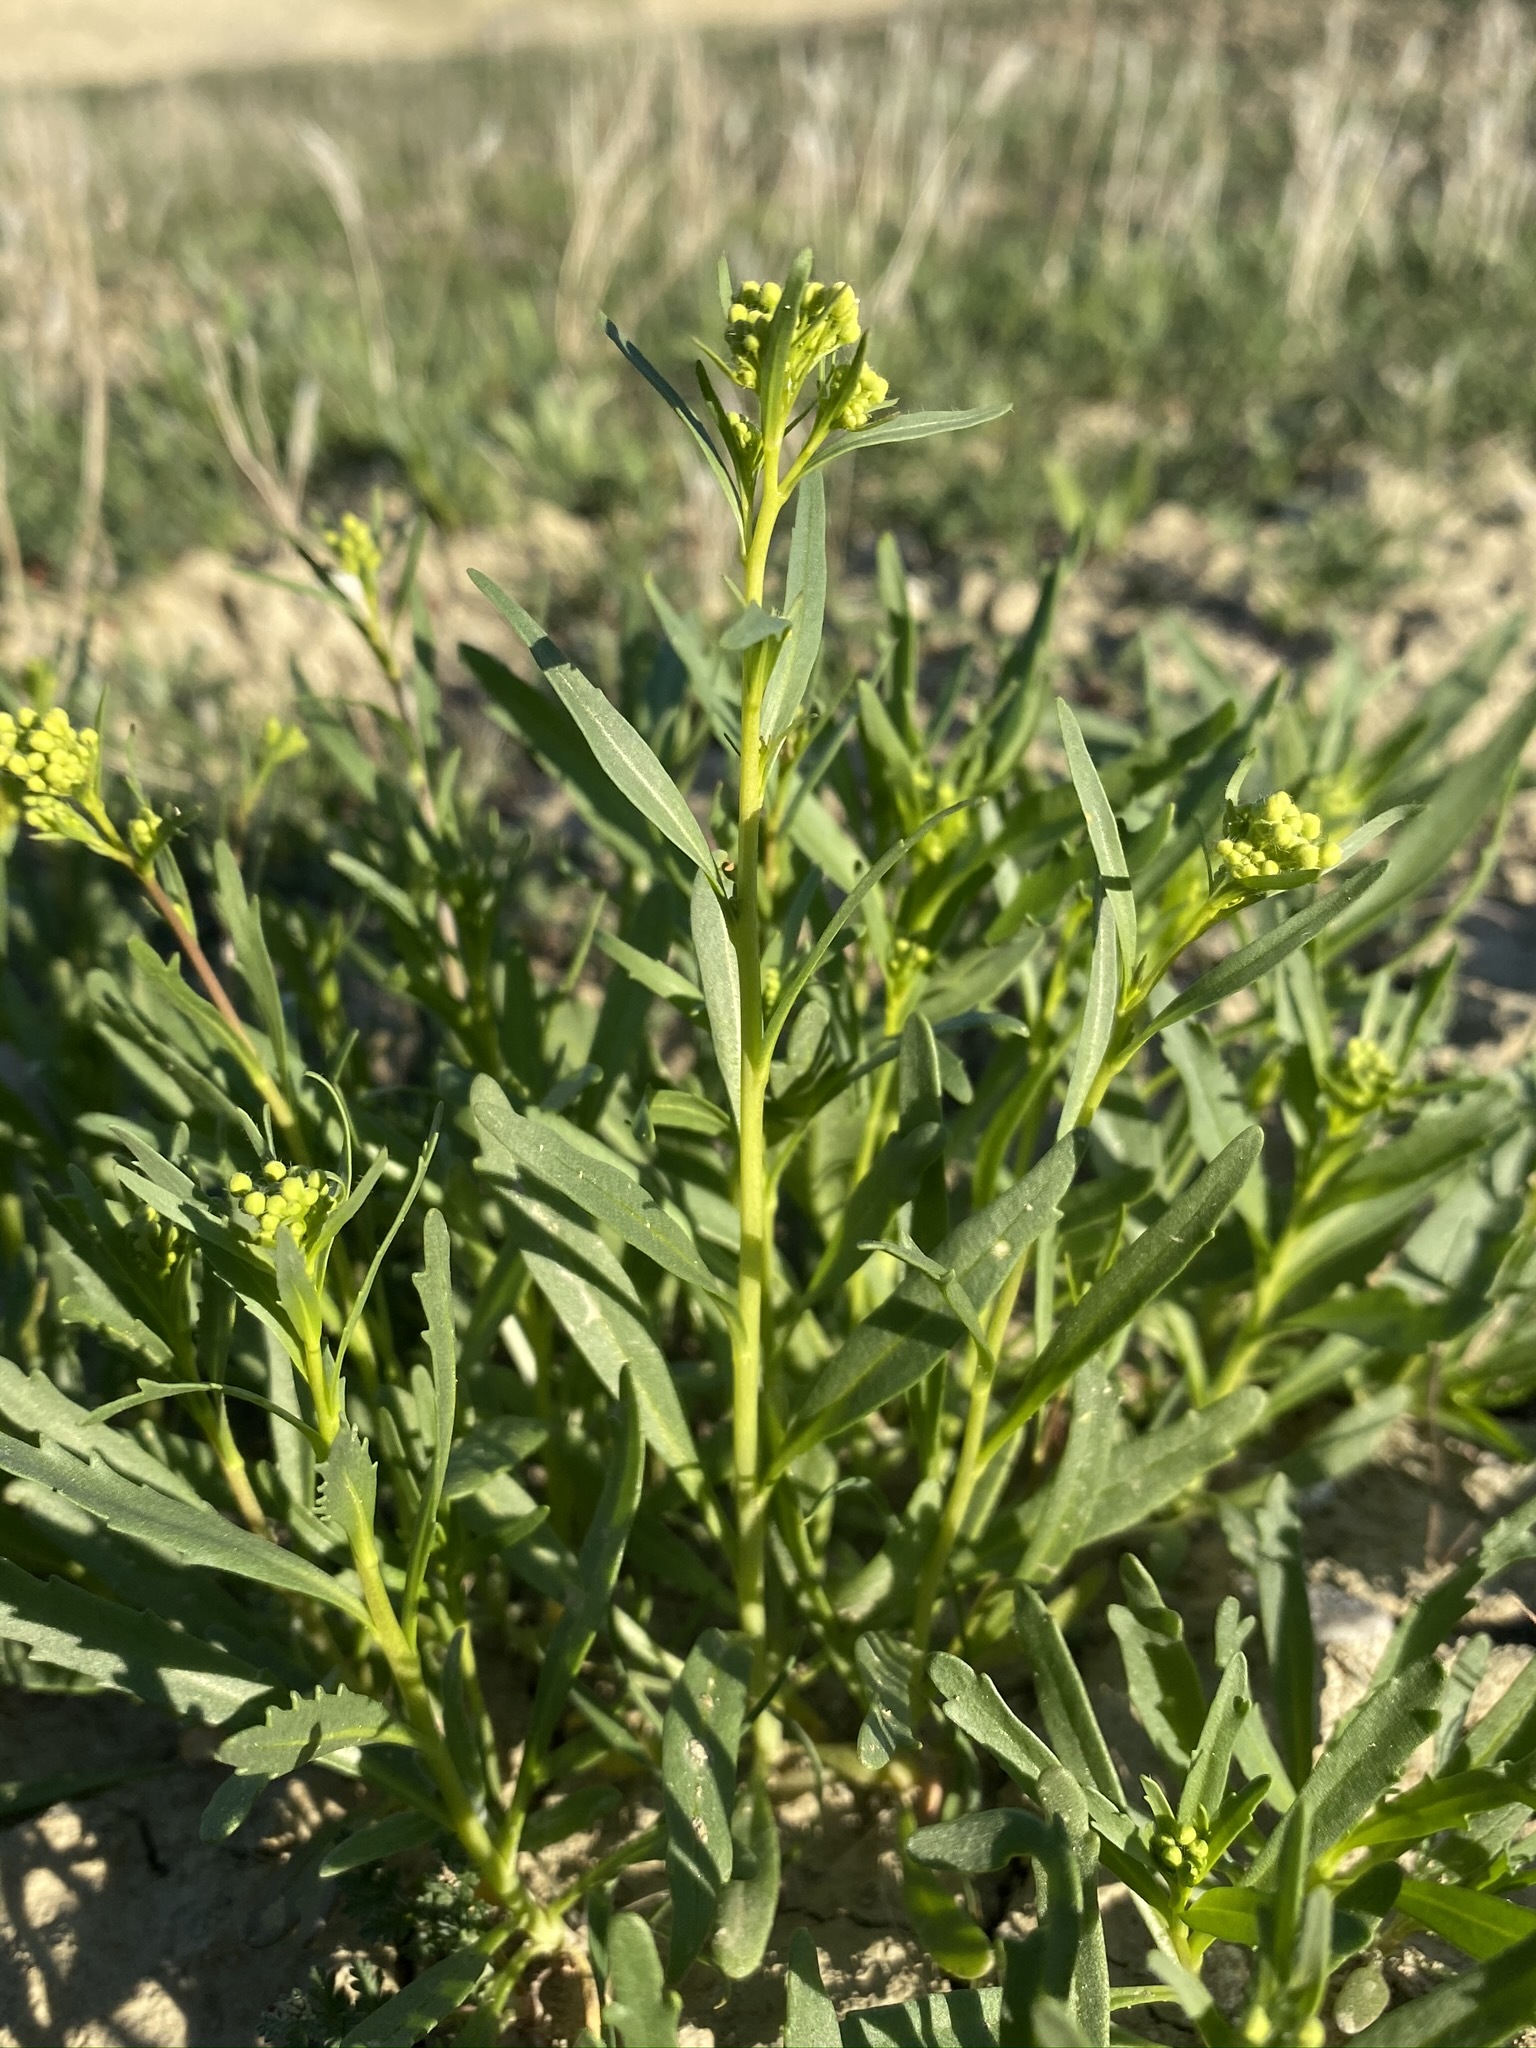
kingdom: Plantae
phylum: Tracheophyta
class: Magnoliopsida
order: Brassicales
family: Brassicaceae
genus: Lepidium
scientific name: Lepidium jaredii
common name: Jared's peppergrass
